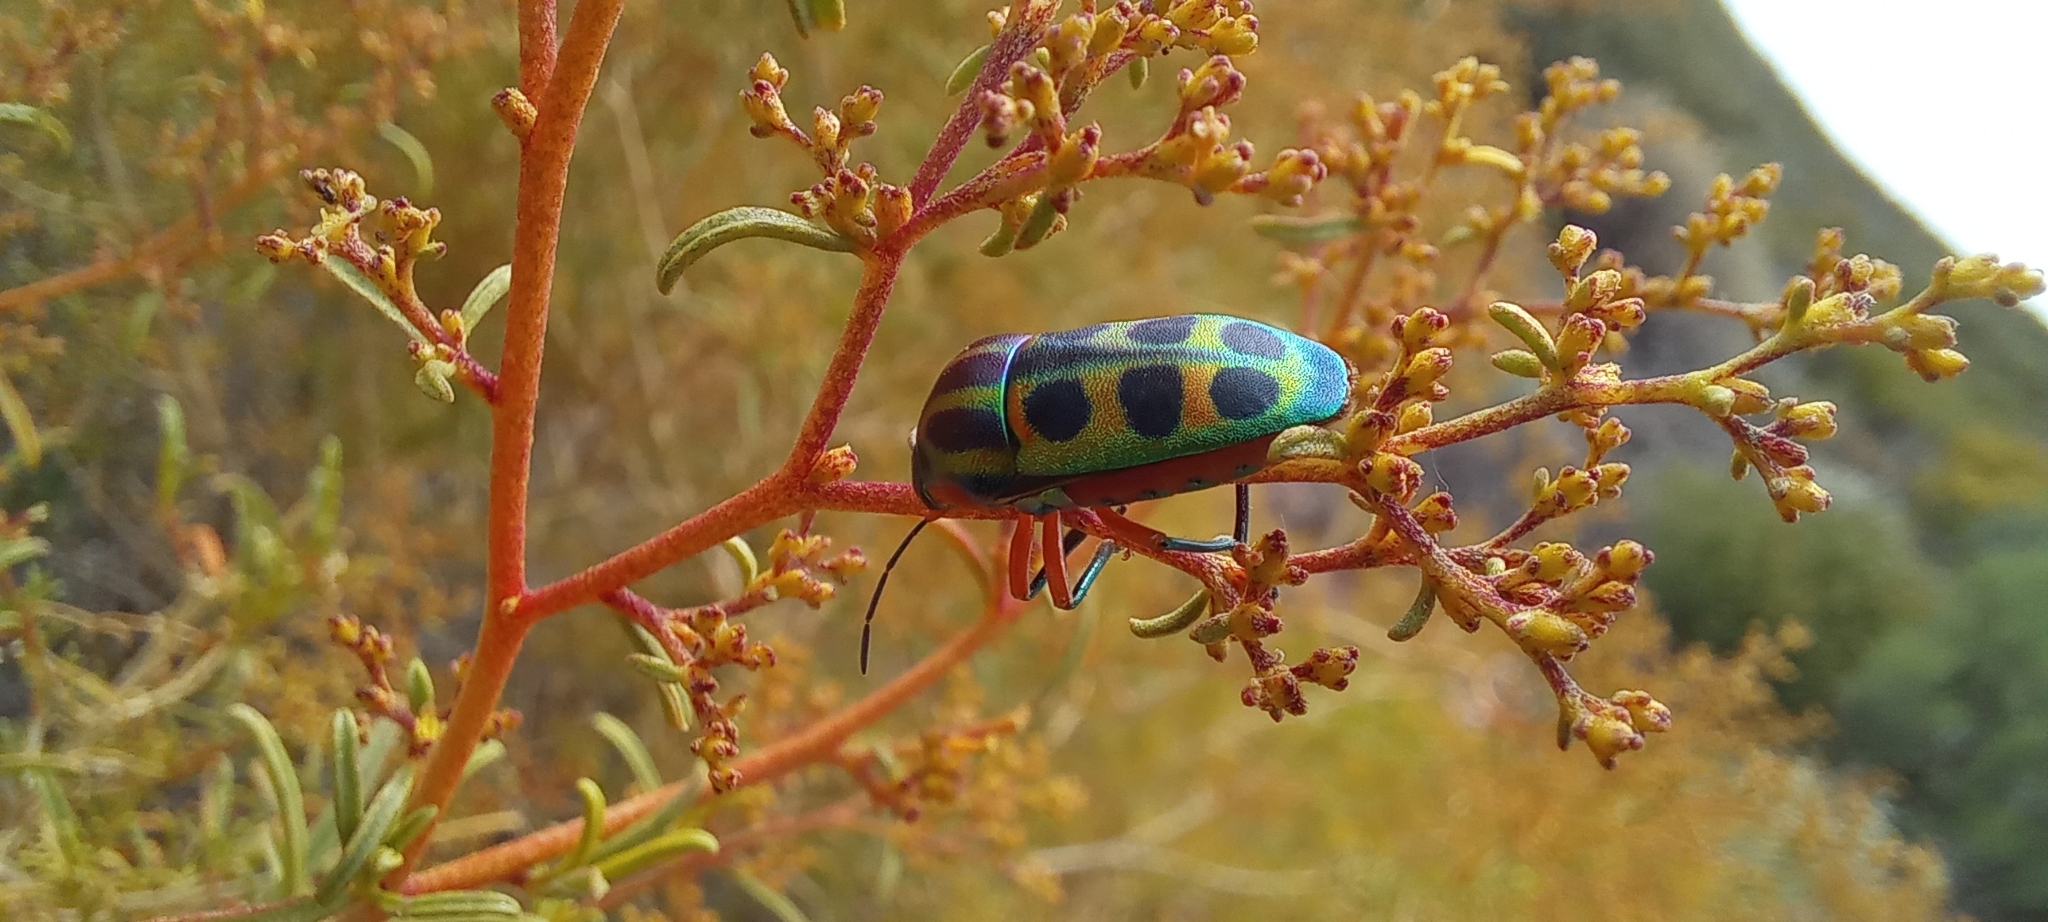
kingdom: Animalia
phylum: Arthropoda
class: Insecta
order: Hemiptera
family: Scutelleridae
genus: Calidea
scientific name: Calidea dregii
